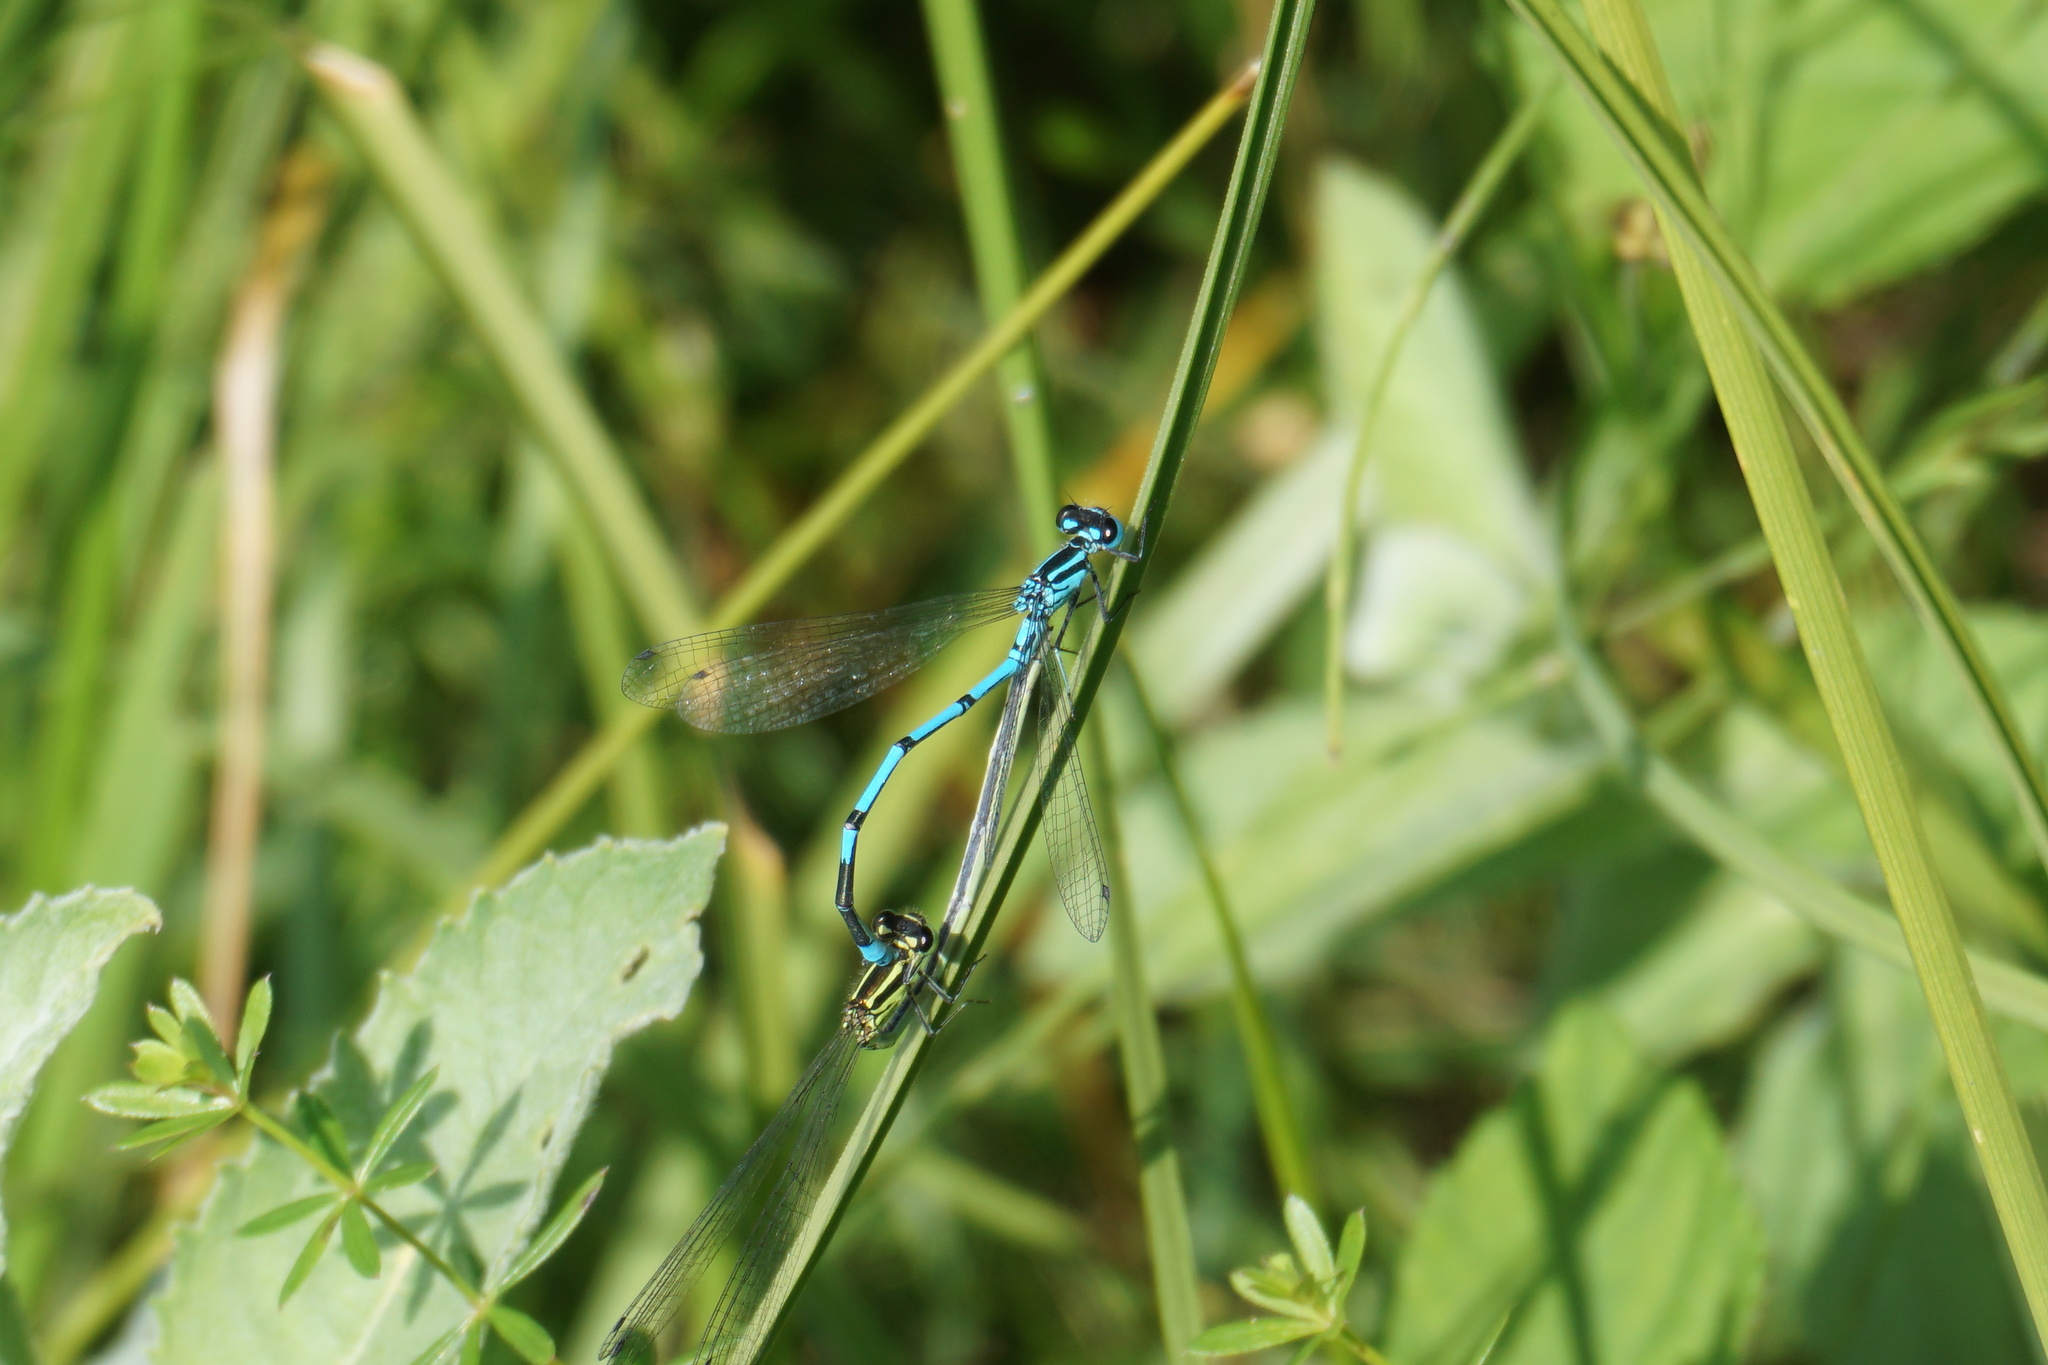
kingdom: Animalia
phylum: Arthropoda
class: Insecta
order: Odonata
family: Coenagrionidae
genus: Coenagrion
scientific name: Coenagrion puella
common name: Azure damselfly
